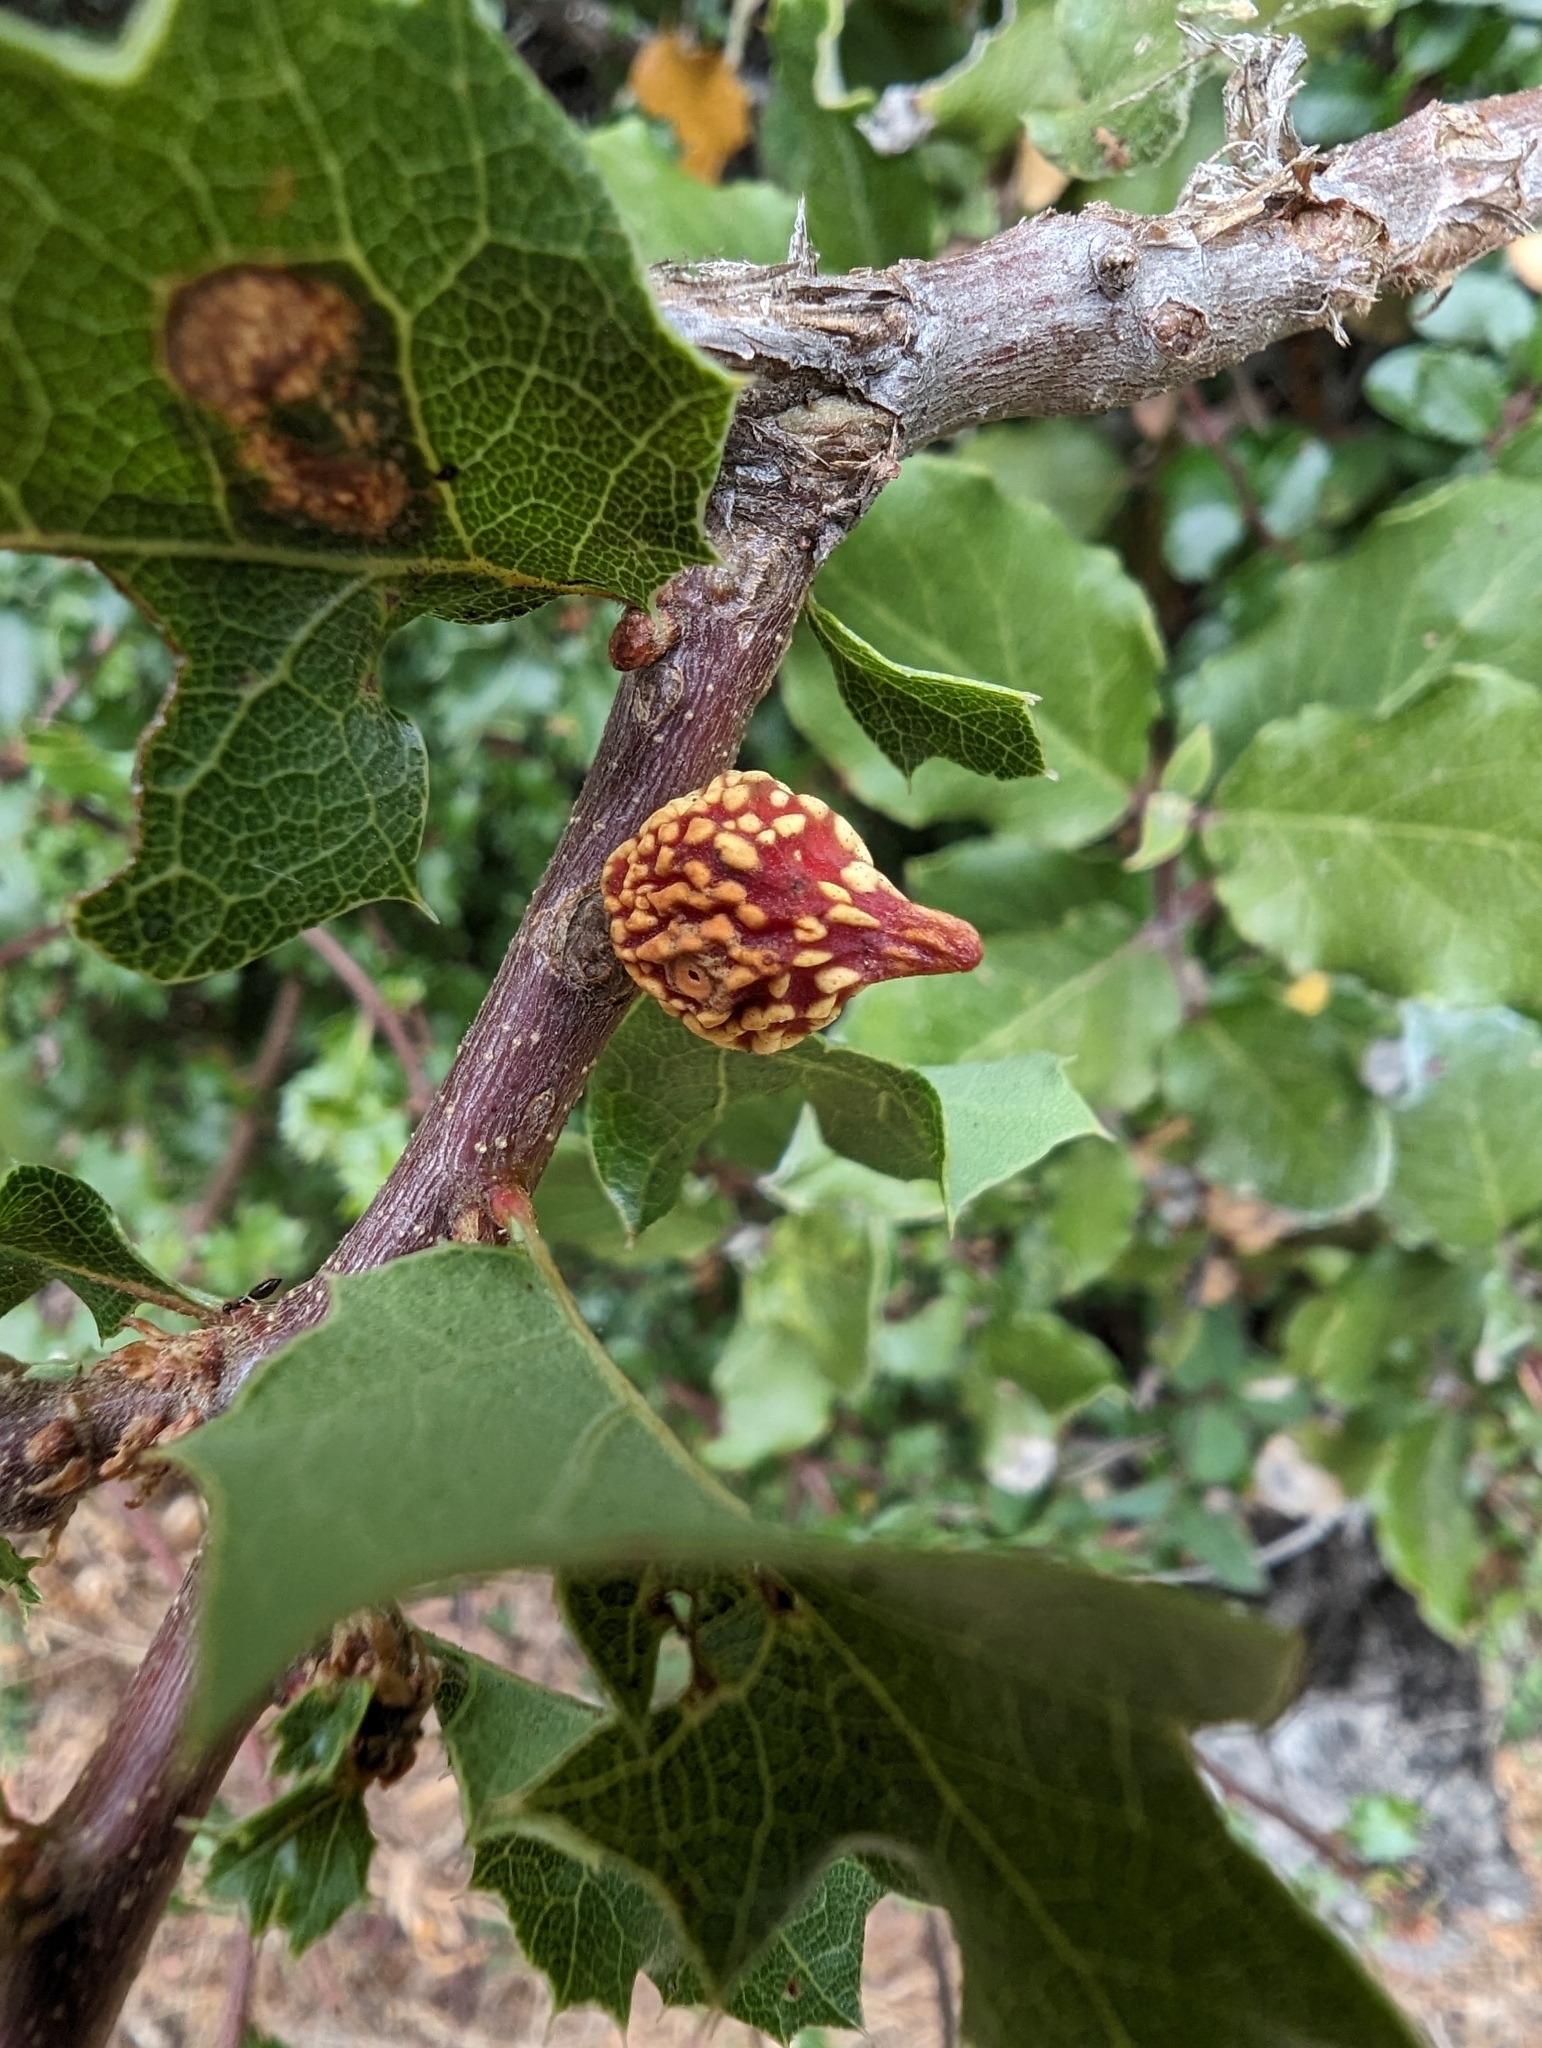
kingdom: Animalia
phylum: Arthropoda
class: Insecta
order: Hymenoptera
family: Cynipidae
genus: Burnettweldia
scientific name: Burnettweldia
